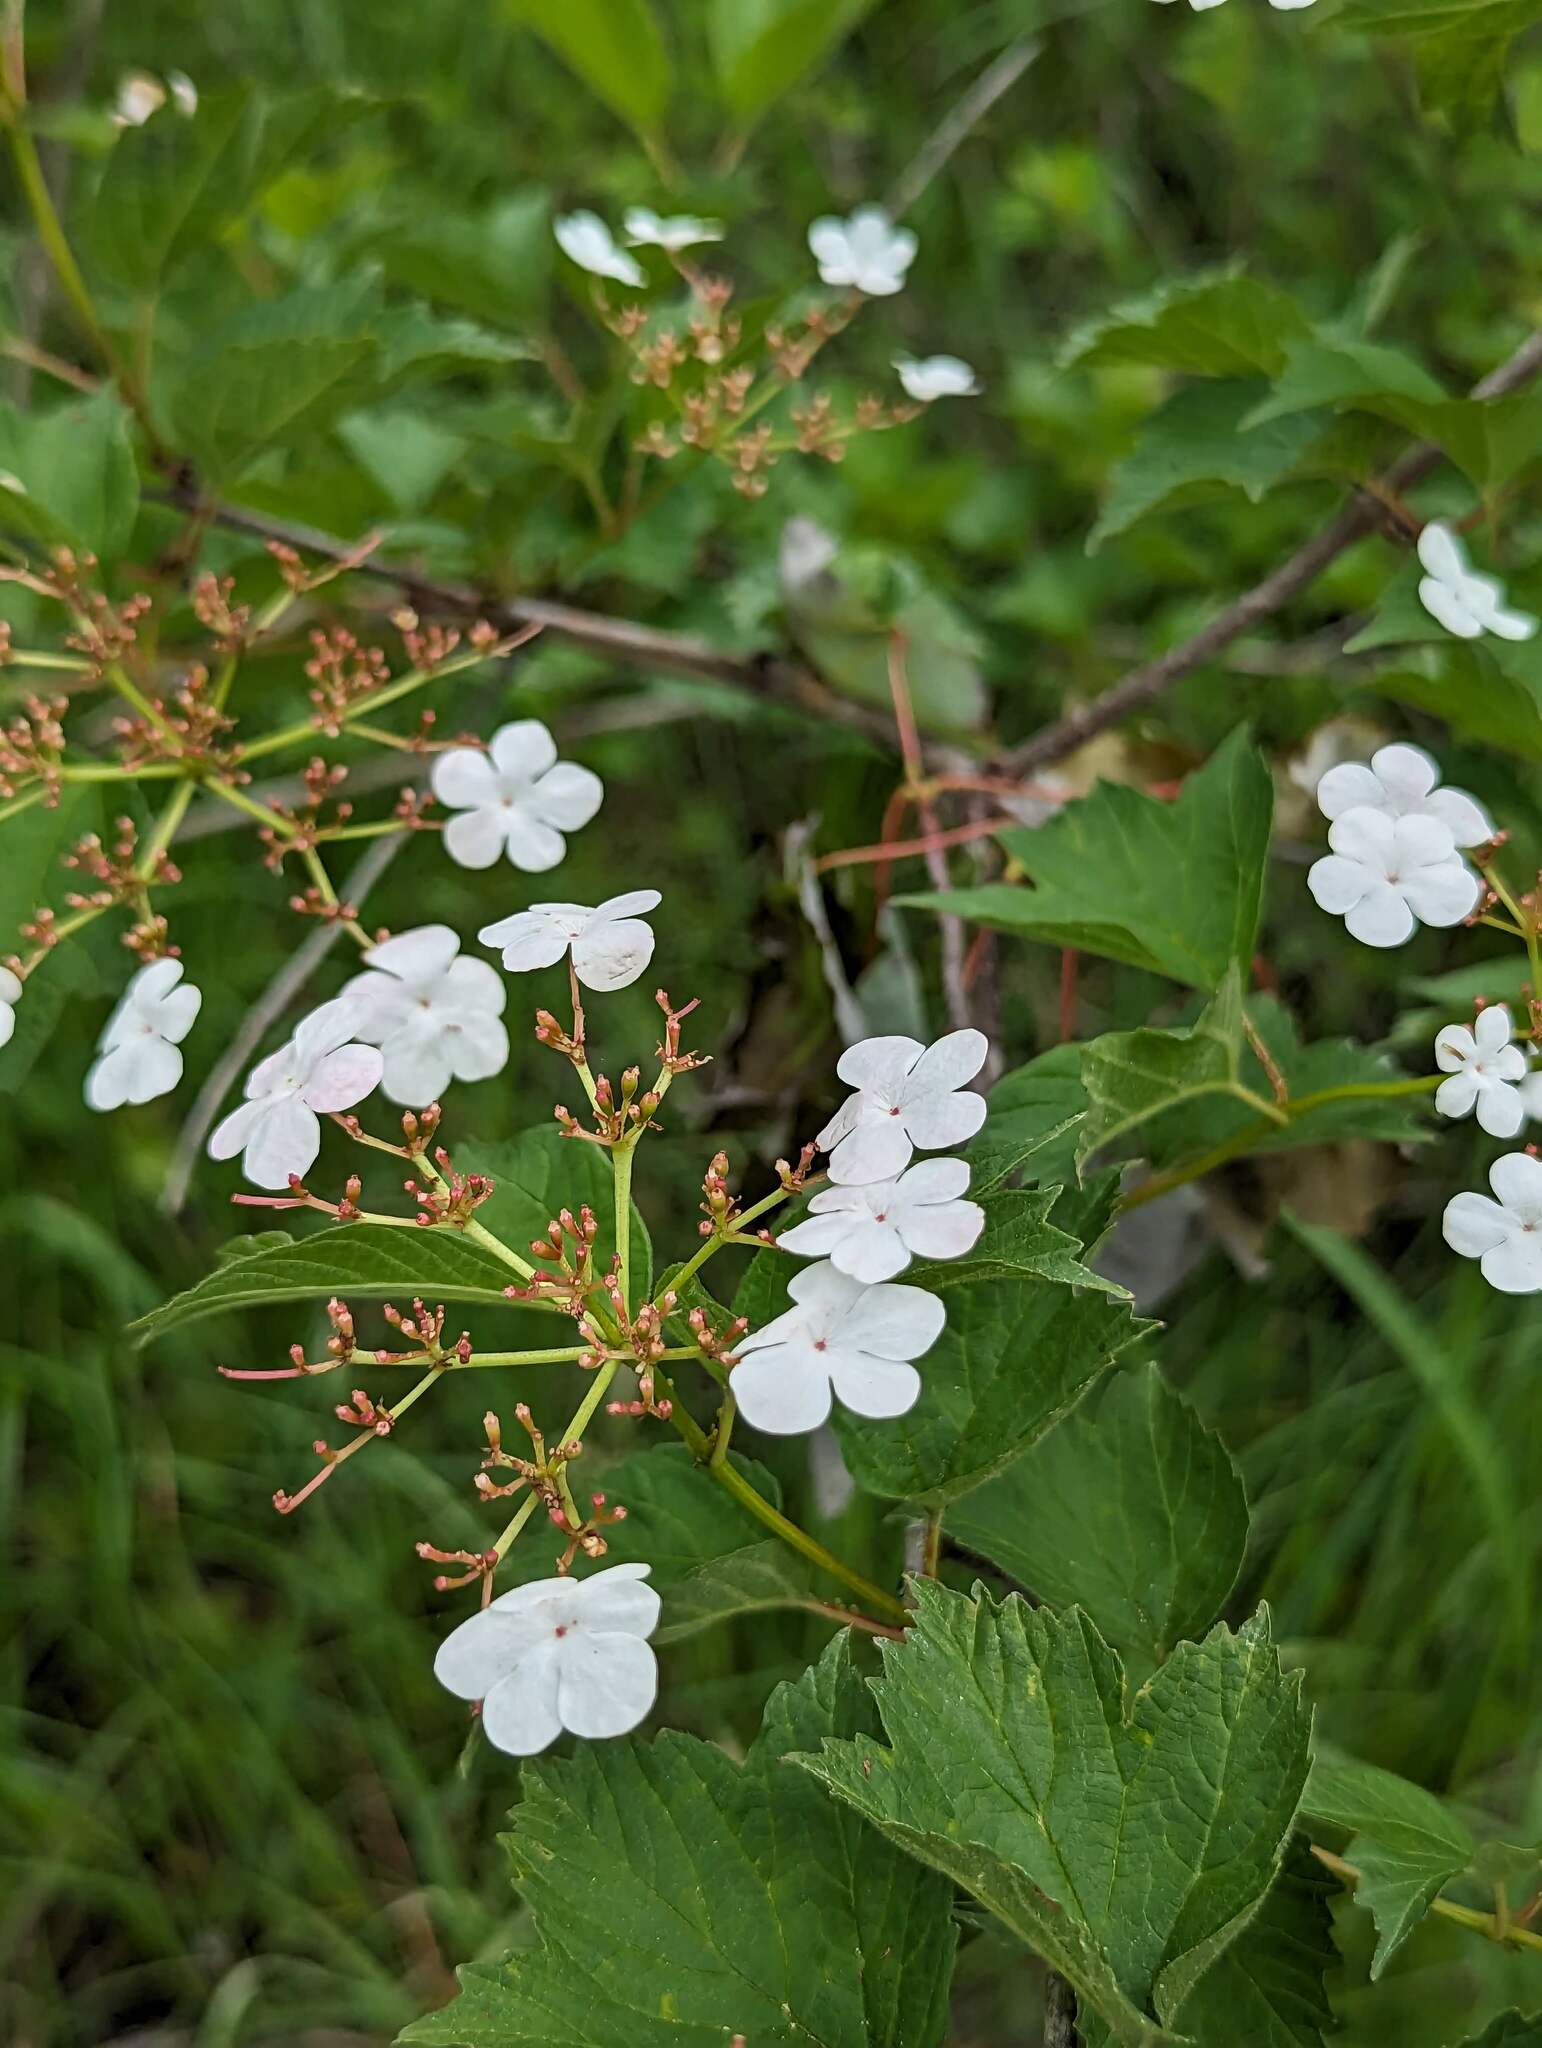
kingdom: Plantae
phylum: Tracheophyta
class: Magnoliopsida
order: Dipsacales
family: Viburnaceae
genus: Viburnum
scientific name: Viburnum opulus
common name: Guelder-rose
